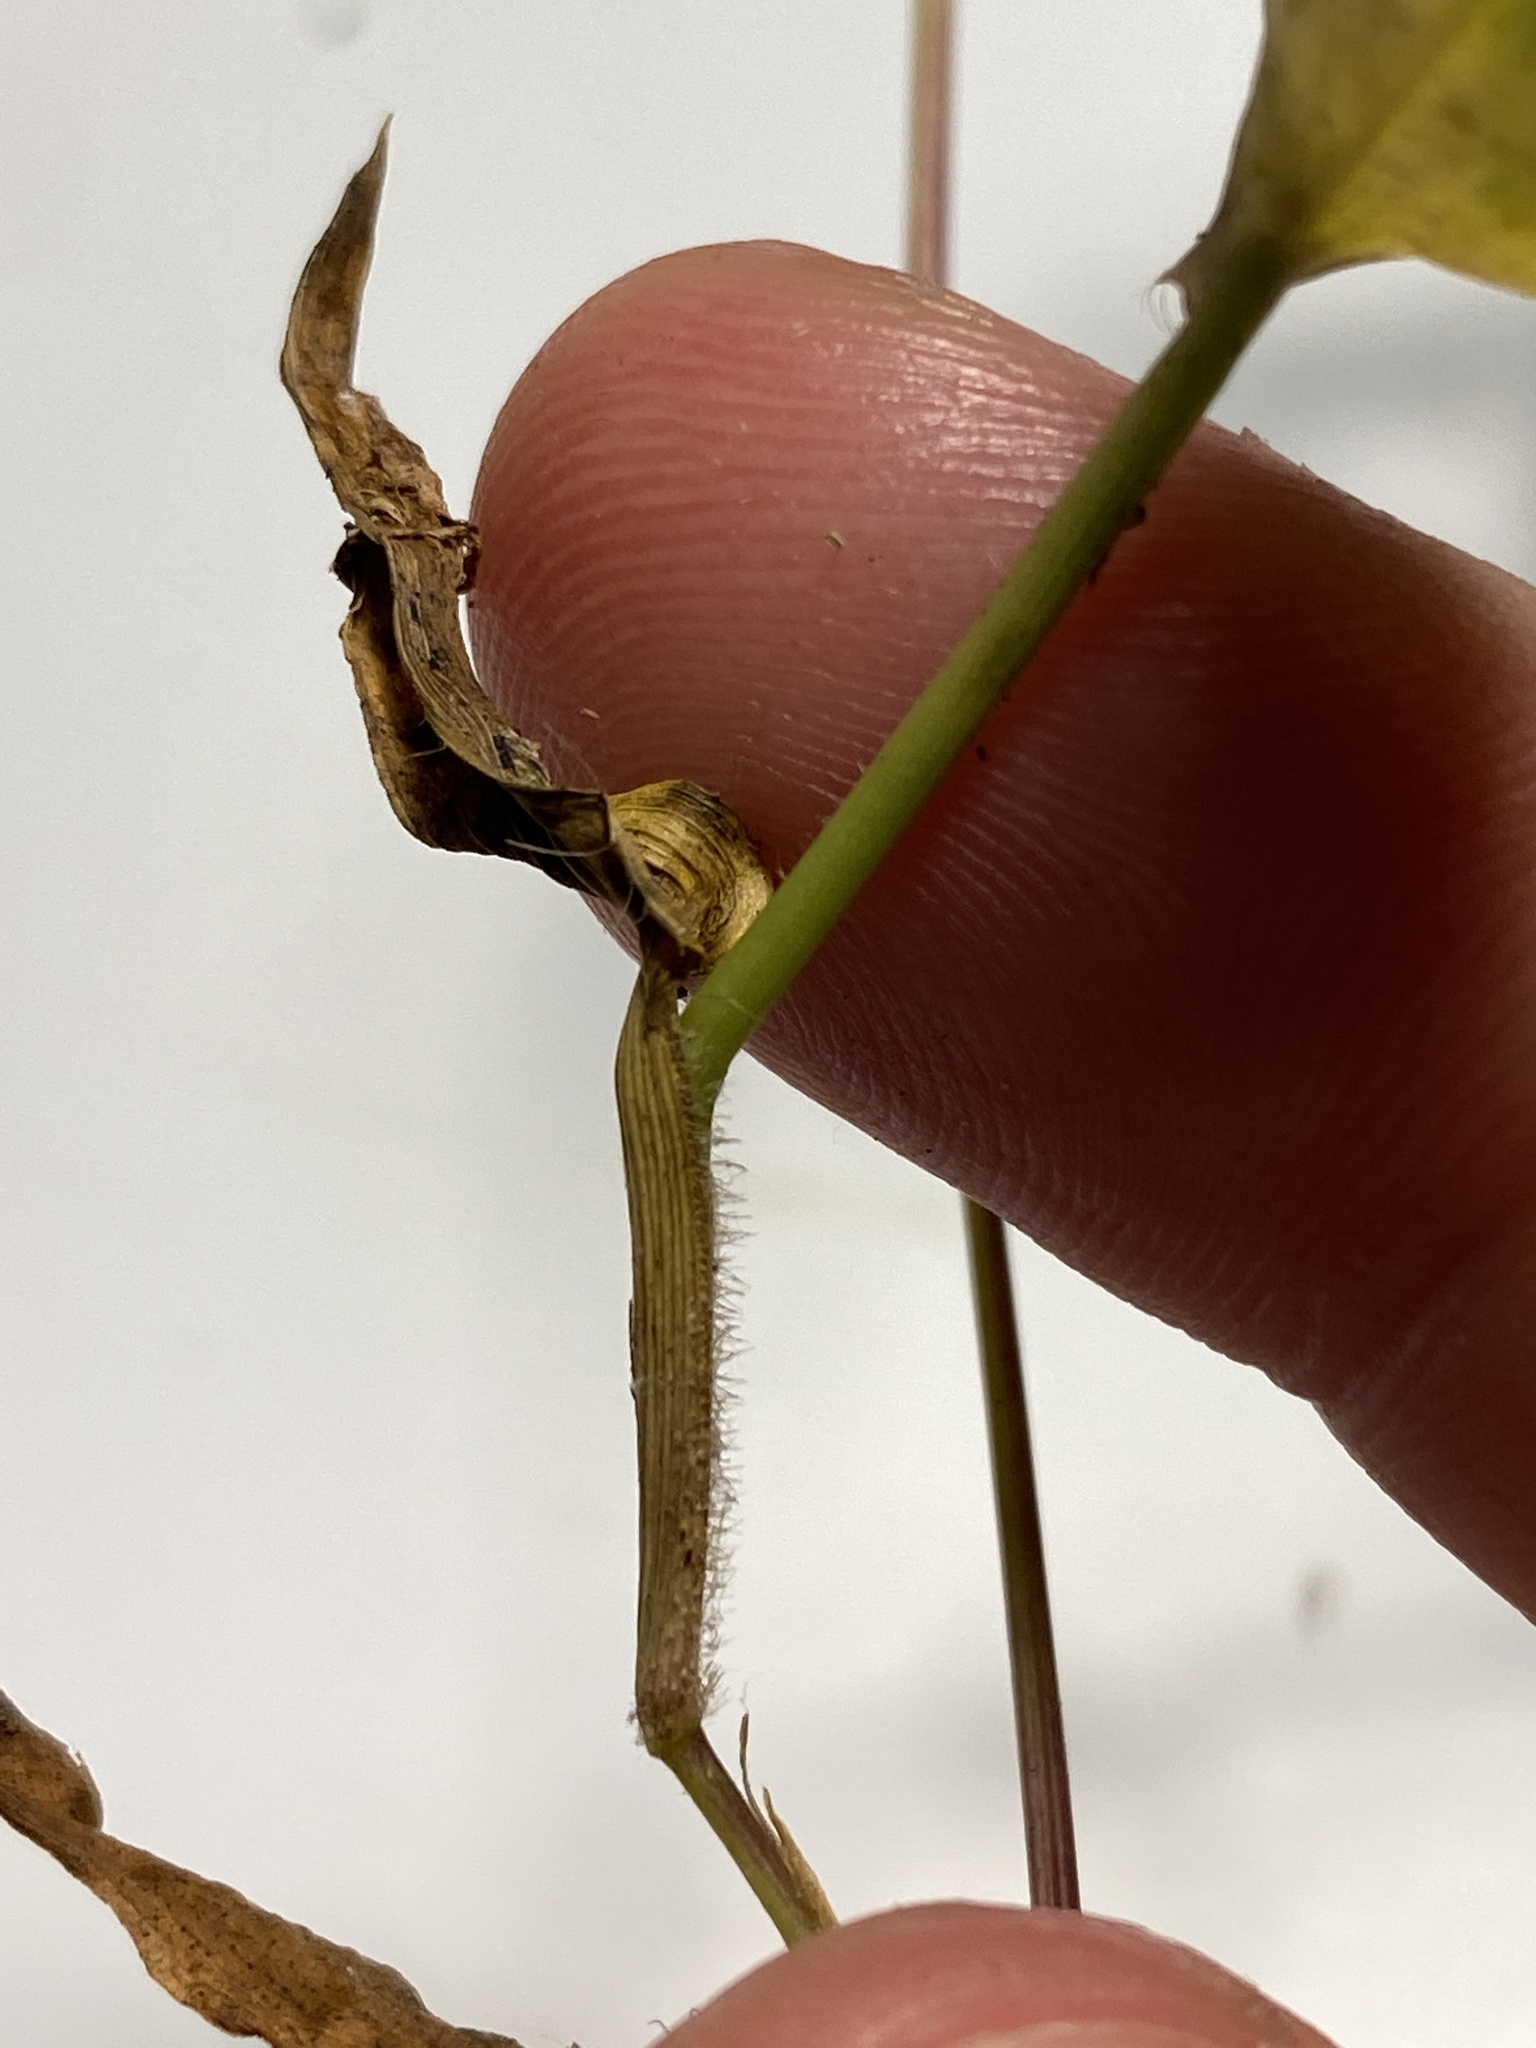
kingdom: Plantae
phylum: Tracheophyta
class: Liliopsida
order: Poales
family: Poaceae
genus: Arthraxon
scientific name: Arthraxon hispidus
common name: Small carpgrass
